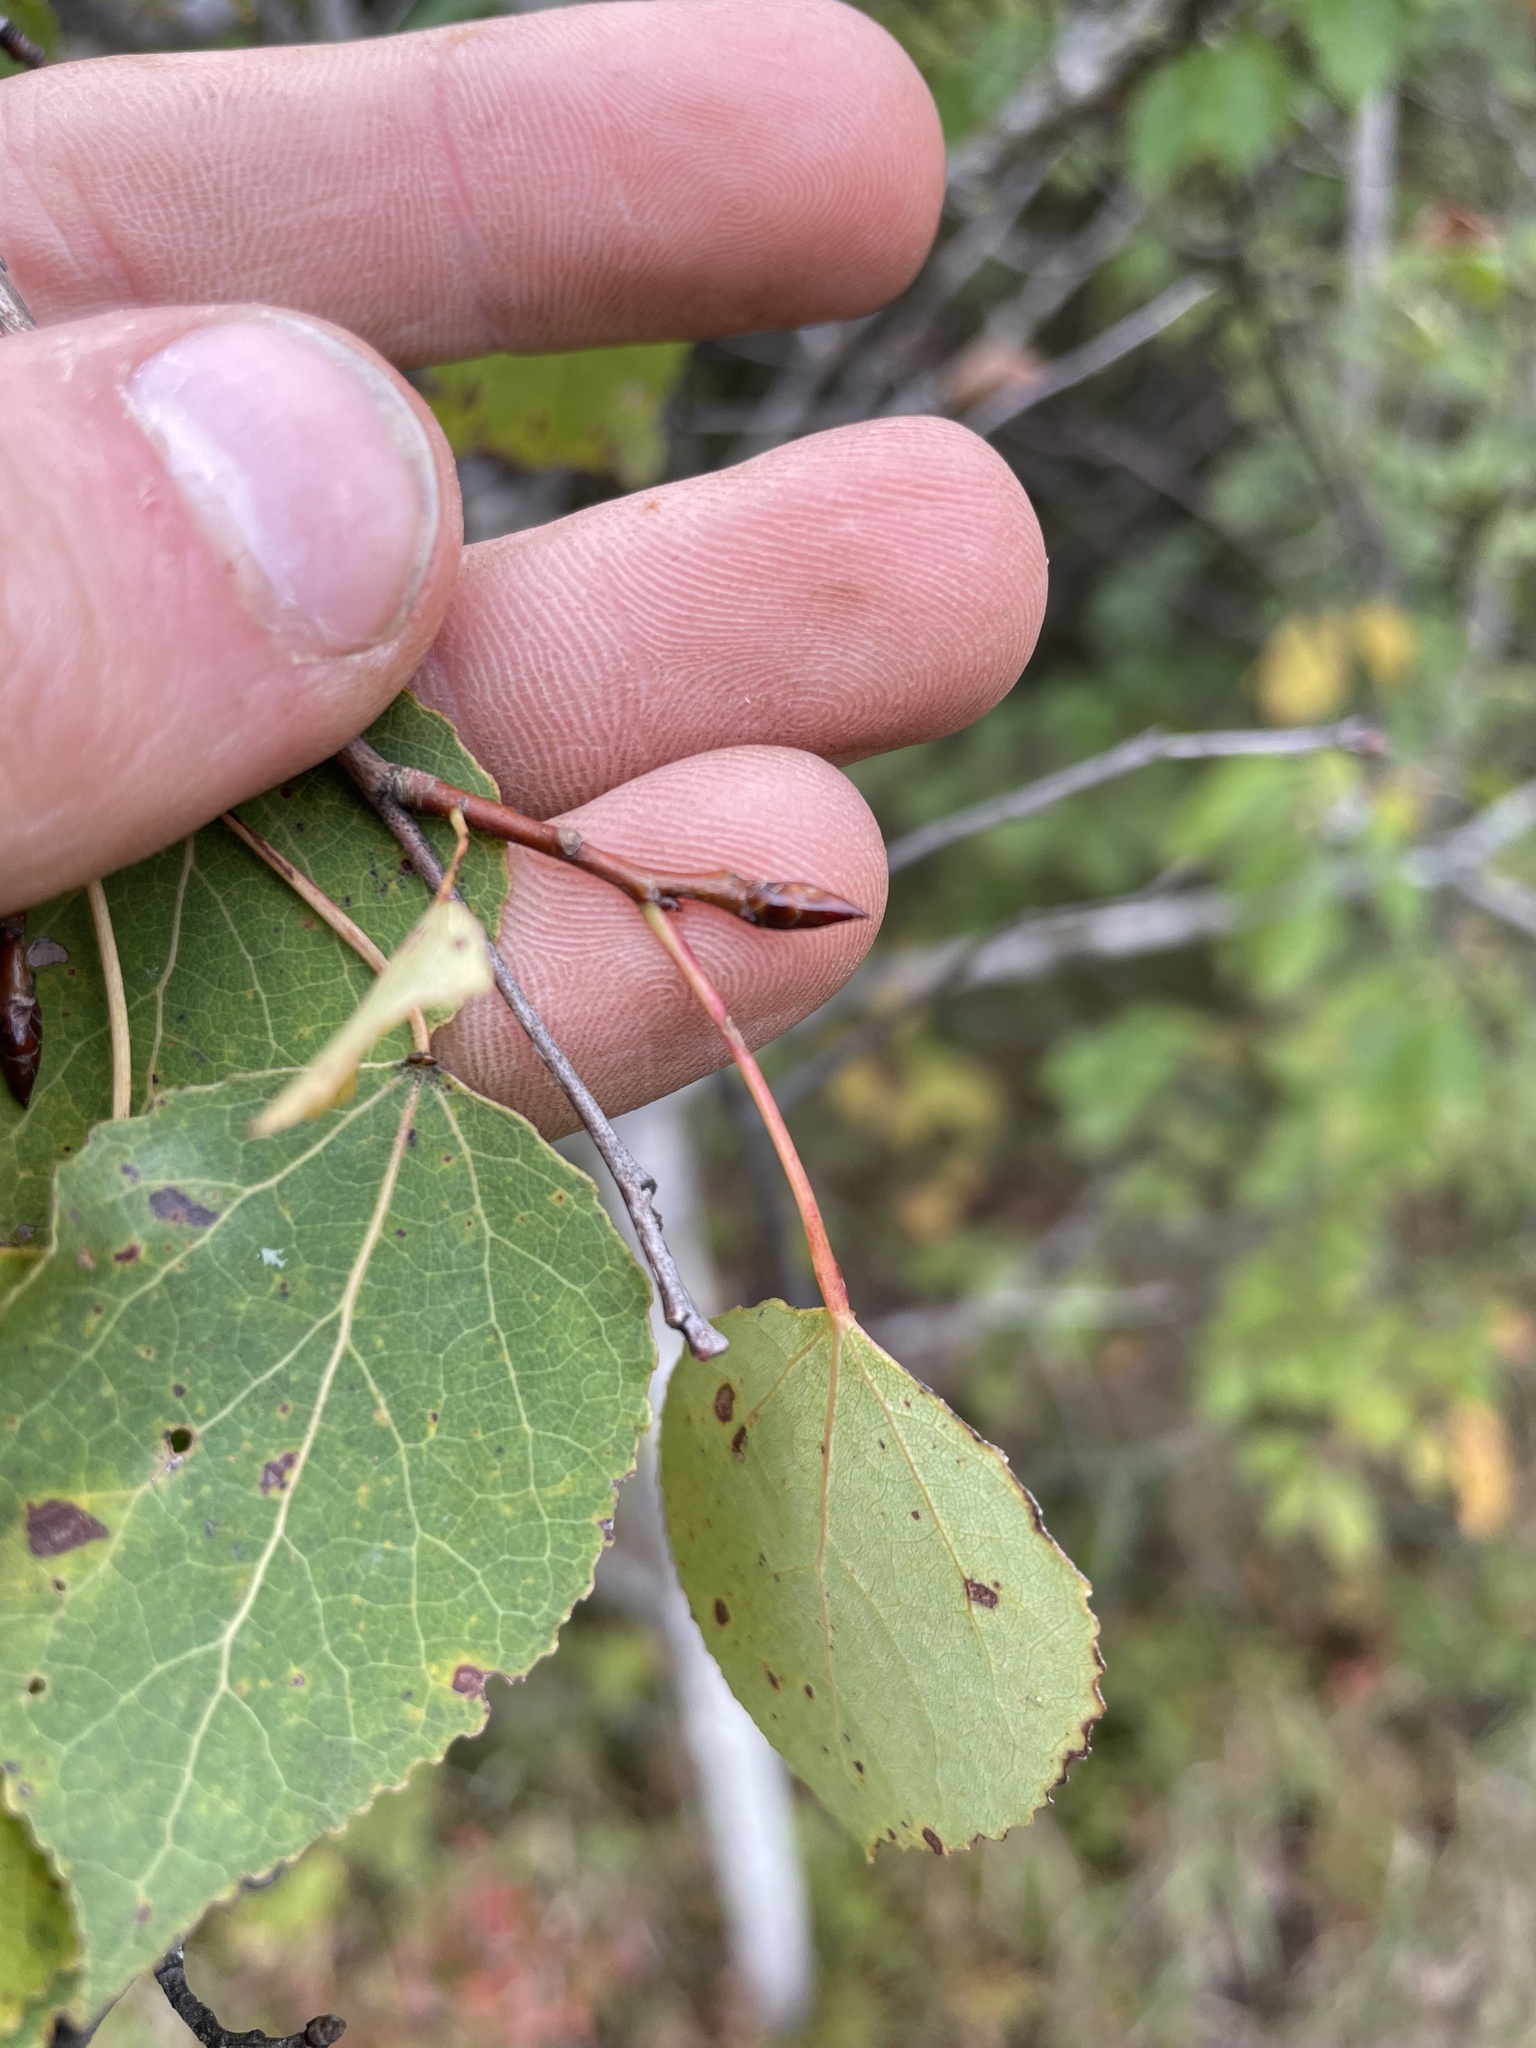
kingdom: Plantae
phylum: Tracheophyta
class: Magnoliopsida
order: Malpighiales
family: Salicaceae
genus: Populus
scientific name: Populus tremuloides
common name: Quaking aspen
